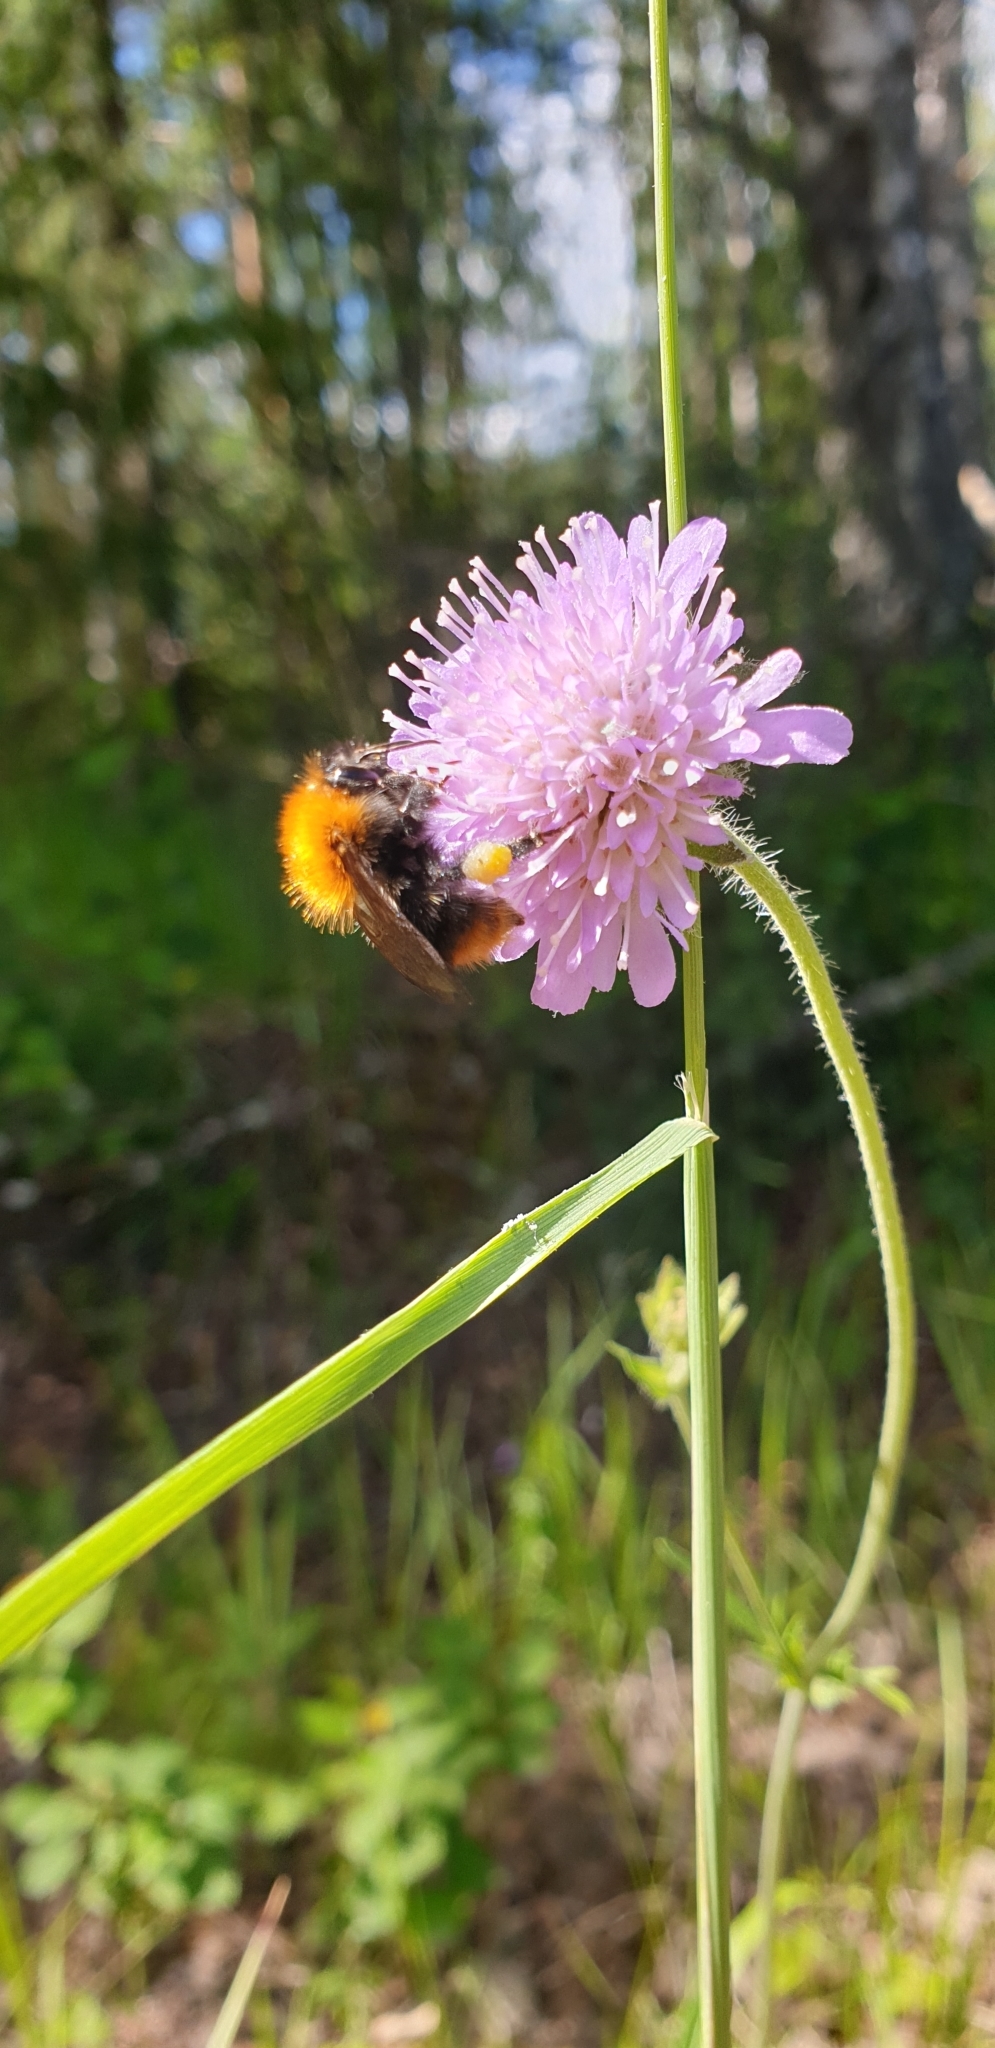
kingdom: Animalia
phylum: Arthropoda
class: Insecta
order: Hymenoptera
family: Apidae
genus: Bombus
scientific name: Bombus pascuorum
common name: Common carder bee
